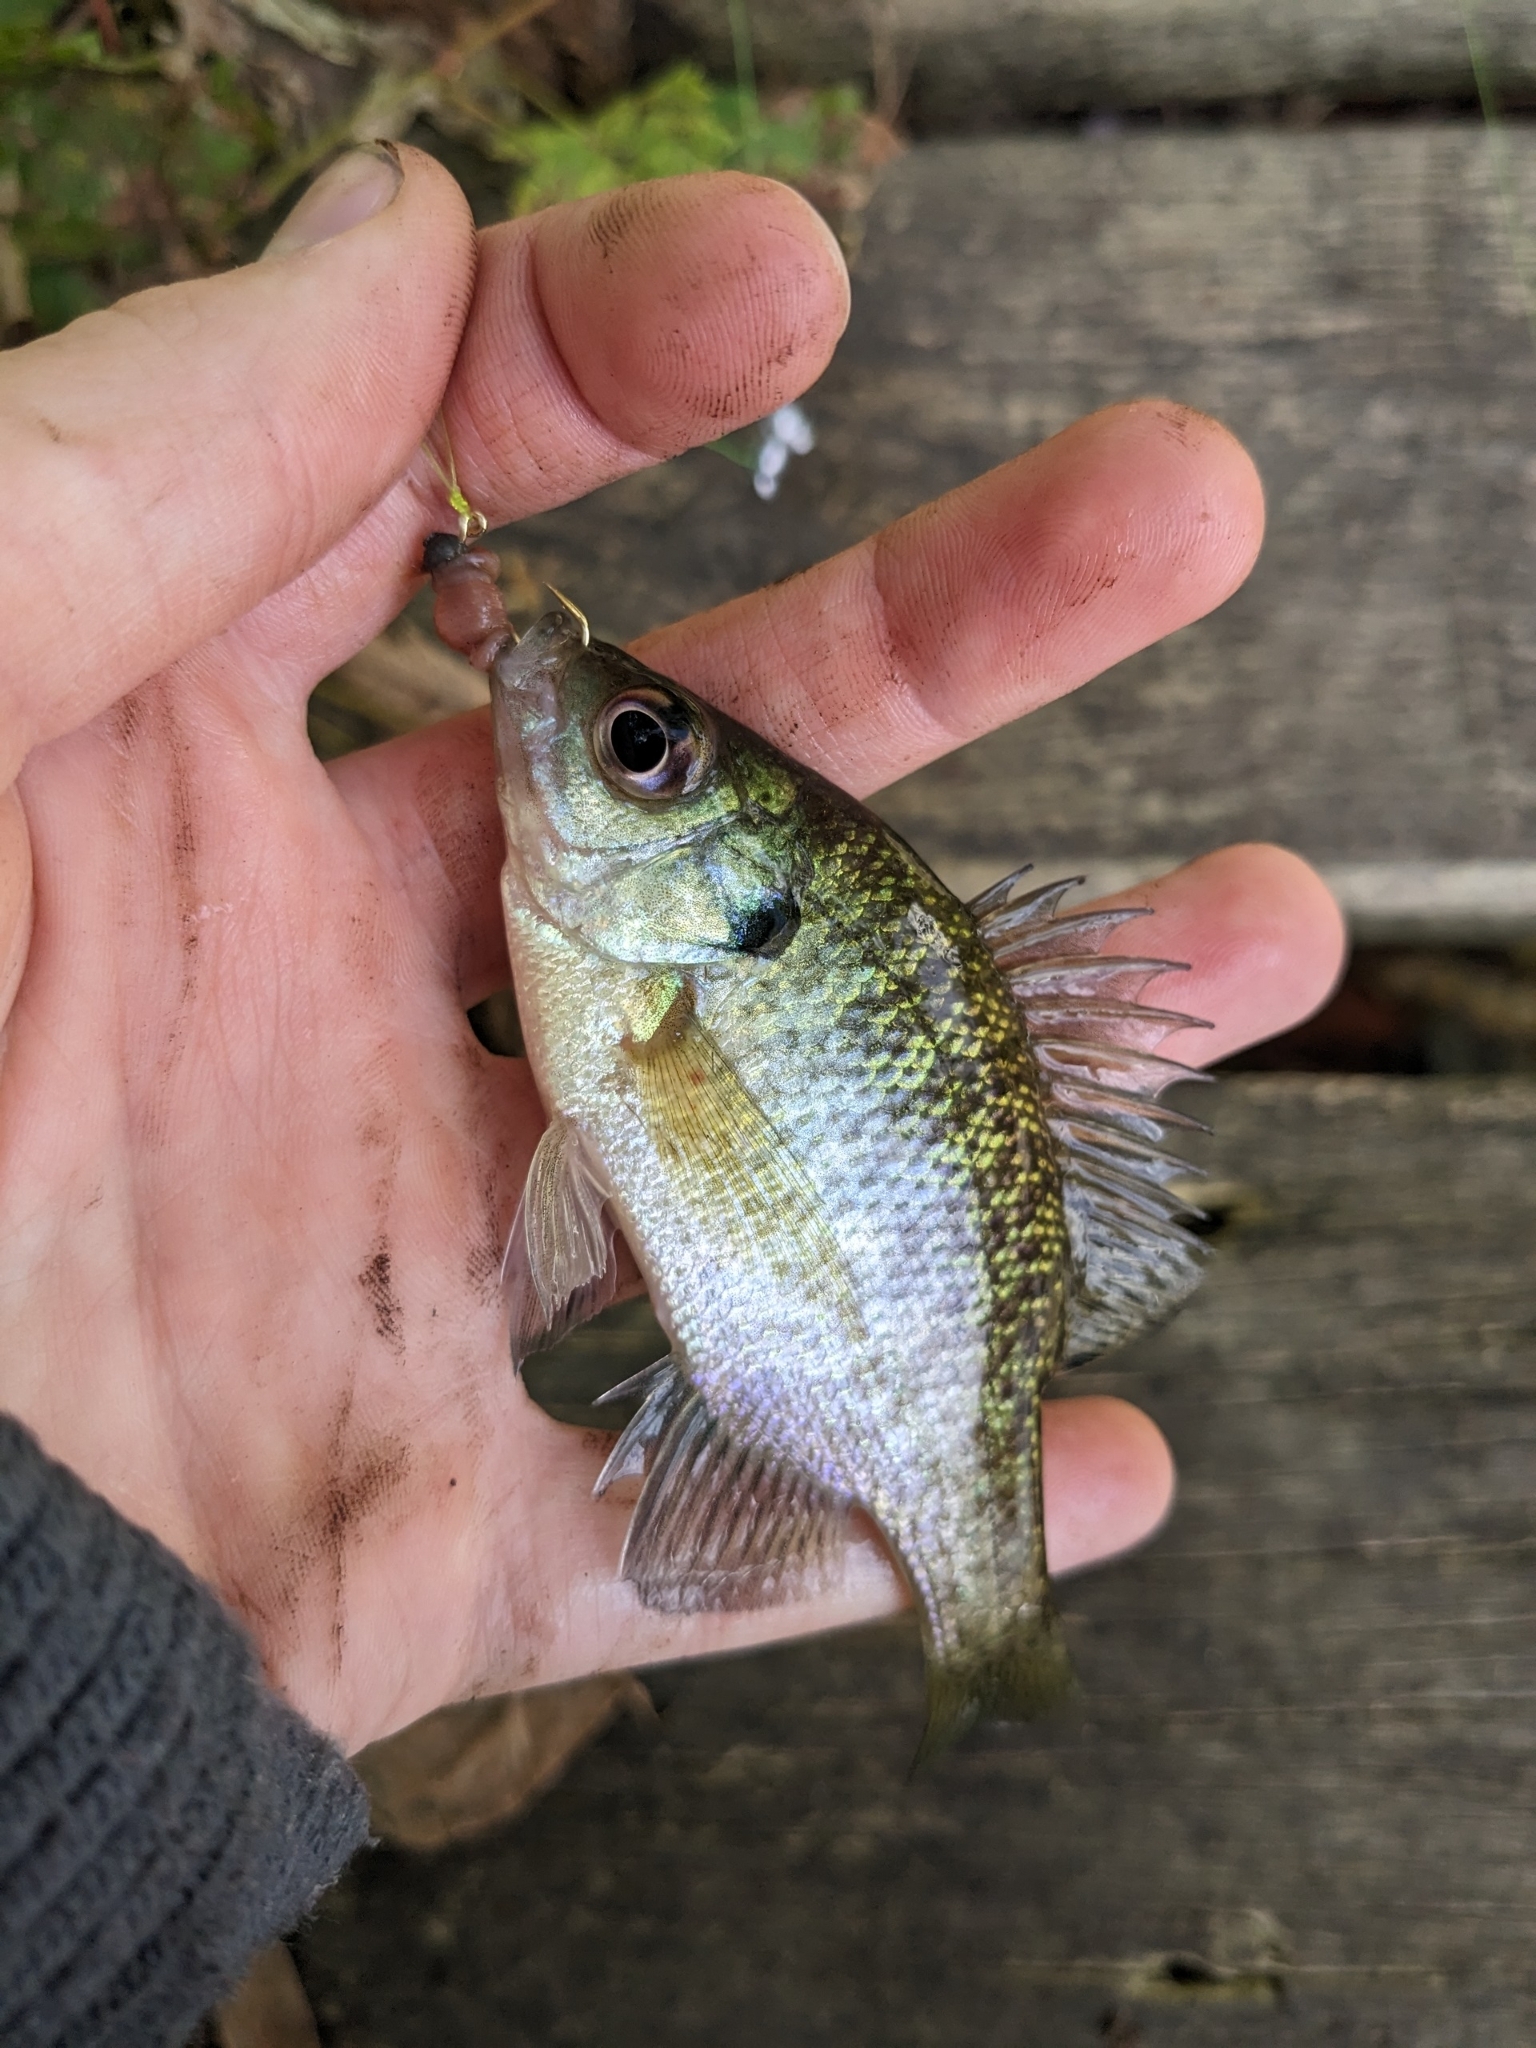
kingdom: Animalia
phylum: Chordata
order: Perciformes
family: Centrarchidae
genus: Lepomis
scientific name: Lepomis macrochirus
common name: Bluegill
